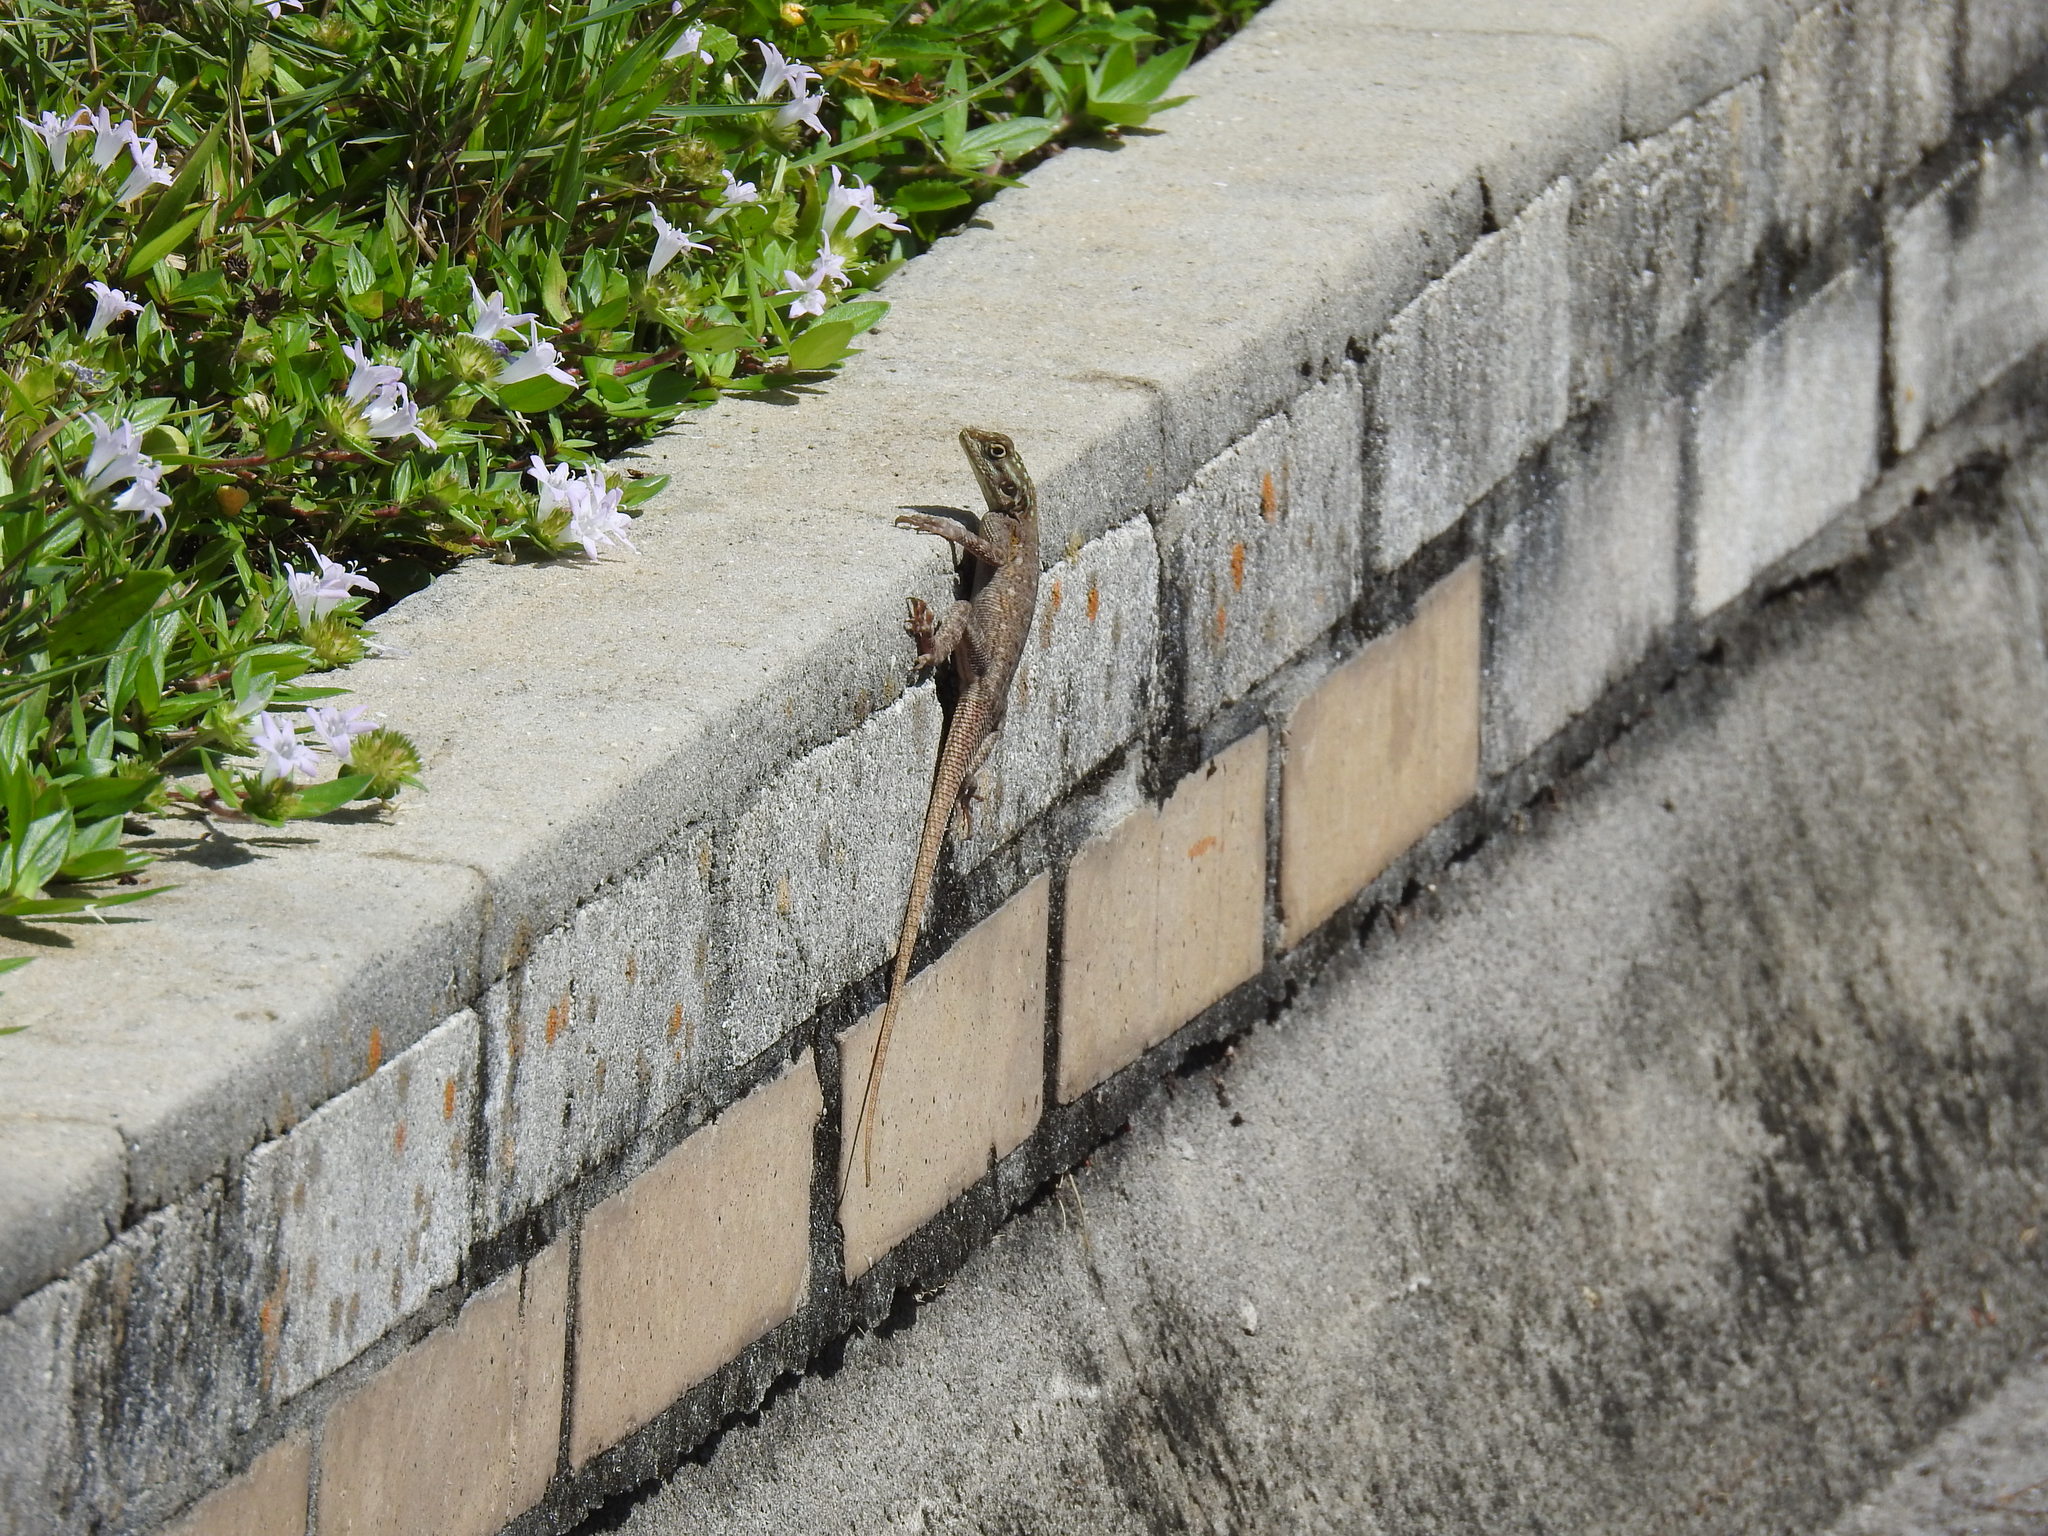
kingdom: Animalia
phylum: Chordata
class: Squamata
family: Agamidae
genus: Agama
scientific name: Agama picticauda
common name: Red-headed agama
